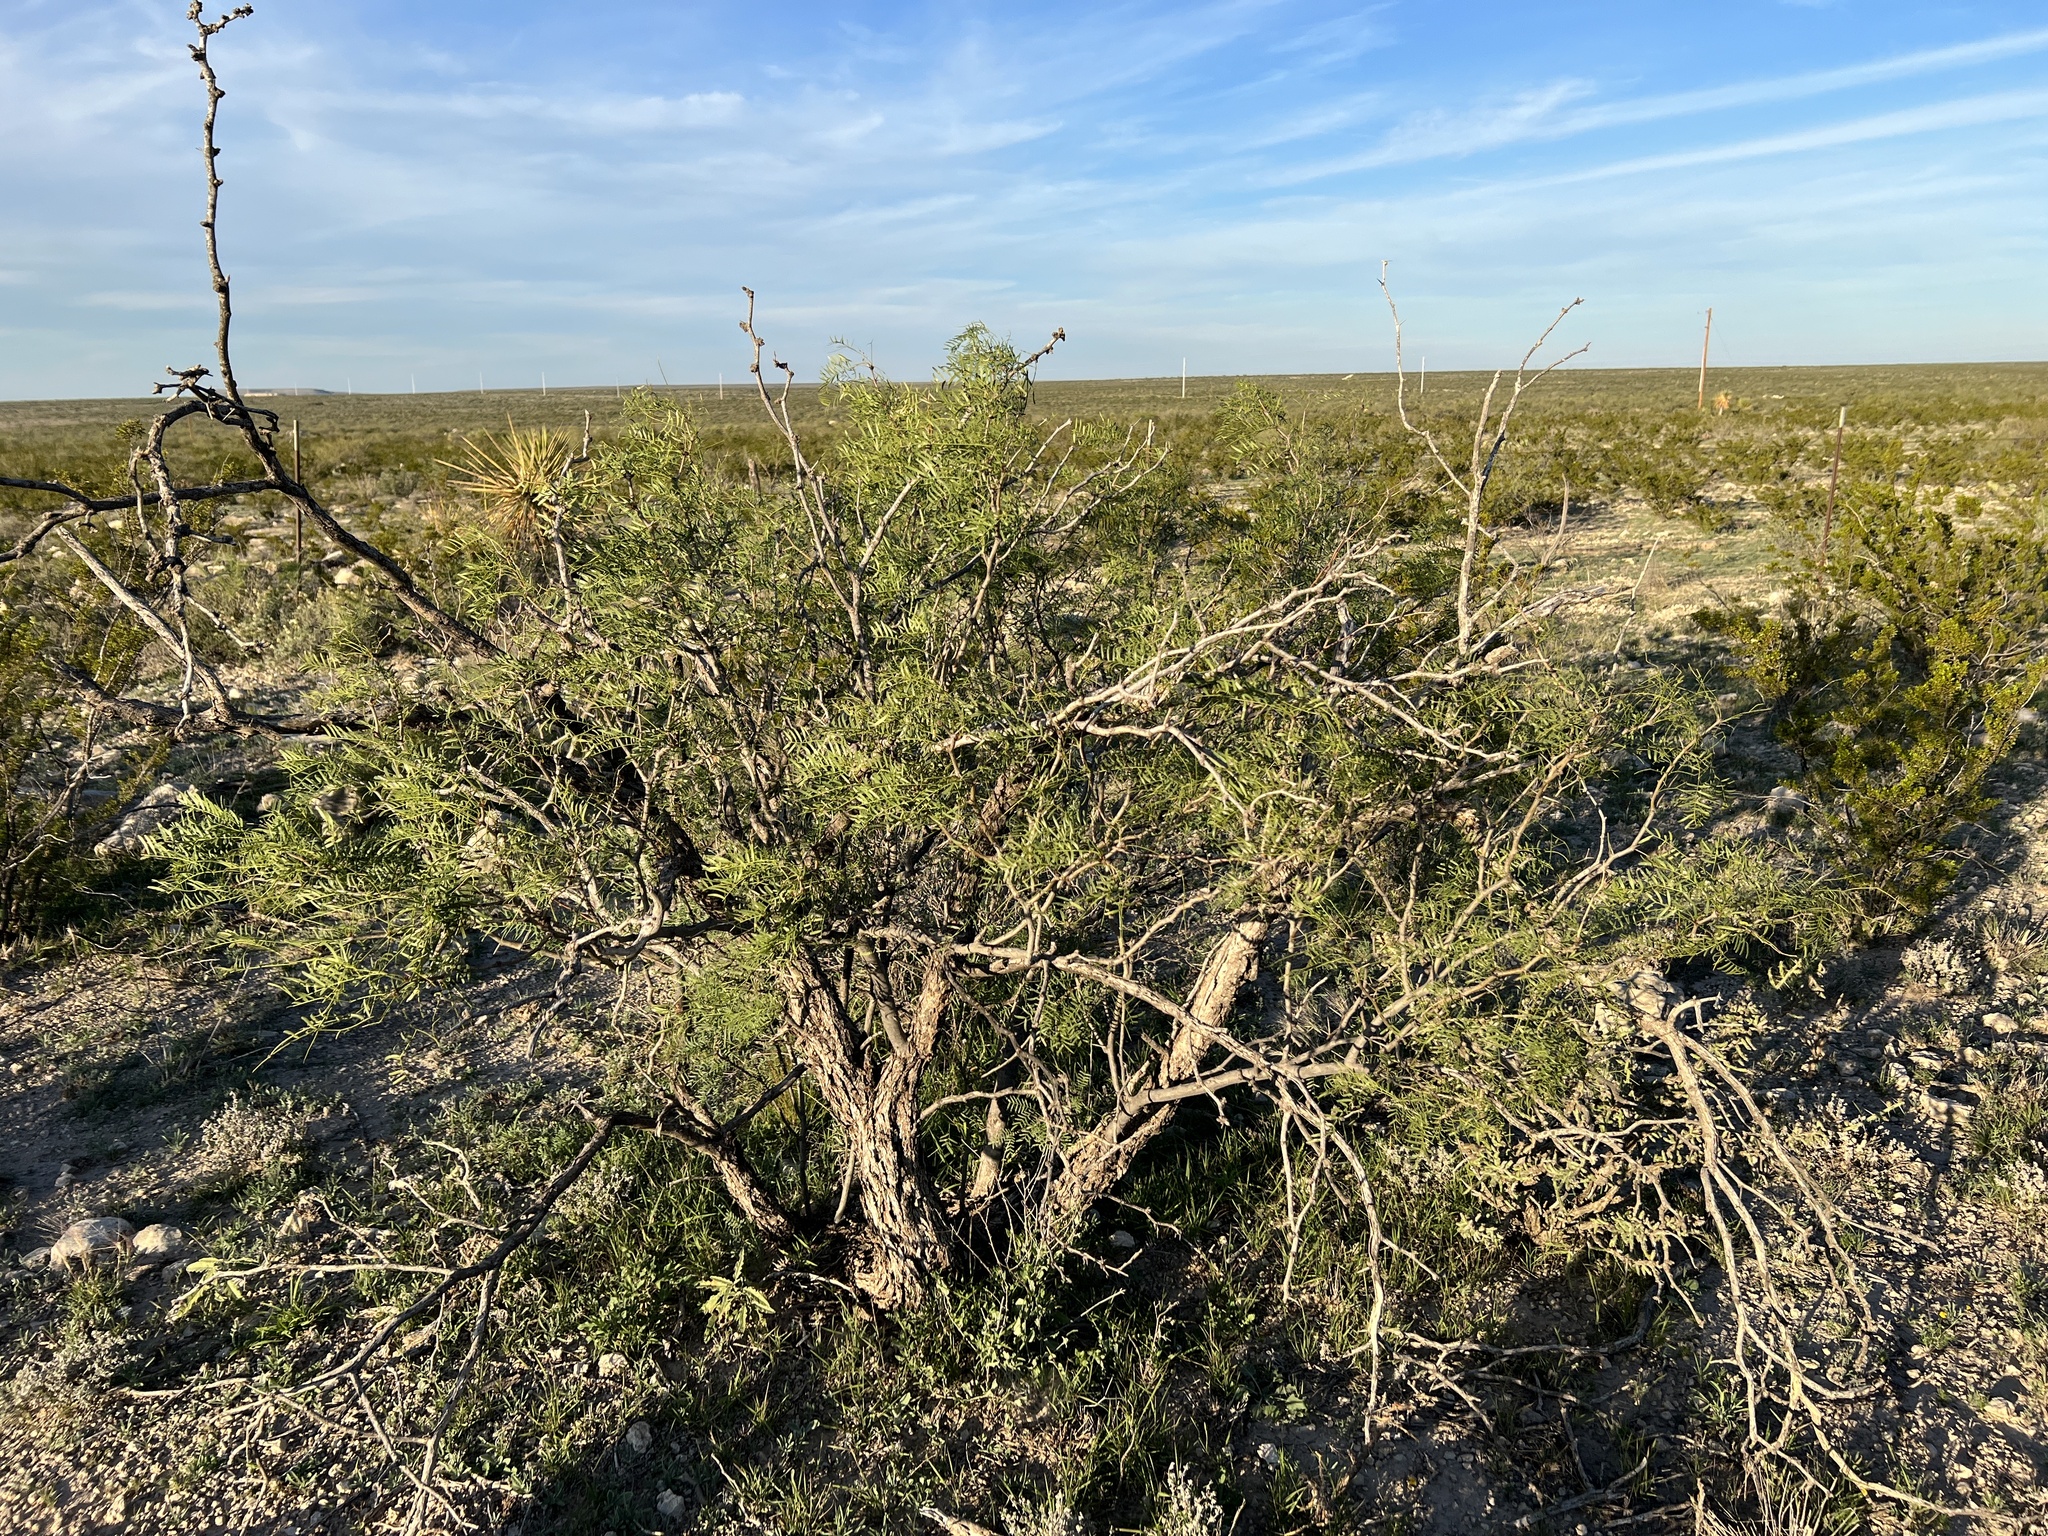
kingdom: Plantae
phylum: Tracheophyta
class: Magnoliopsida
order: Fabales
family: Fabaceae
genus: Prosopis
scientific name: Prosopis pubescens
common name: Screw-bean
